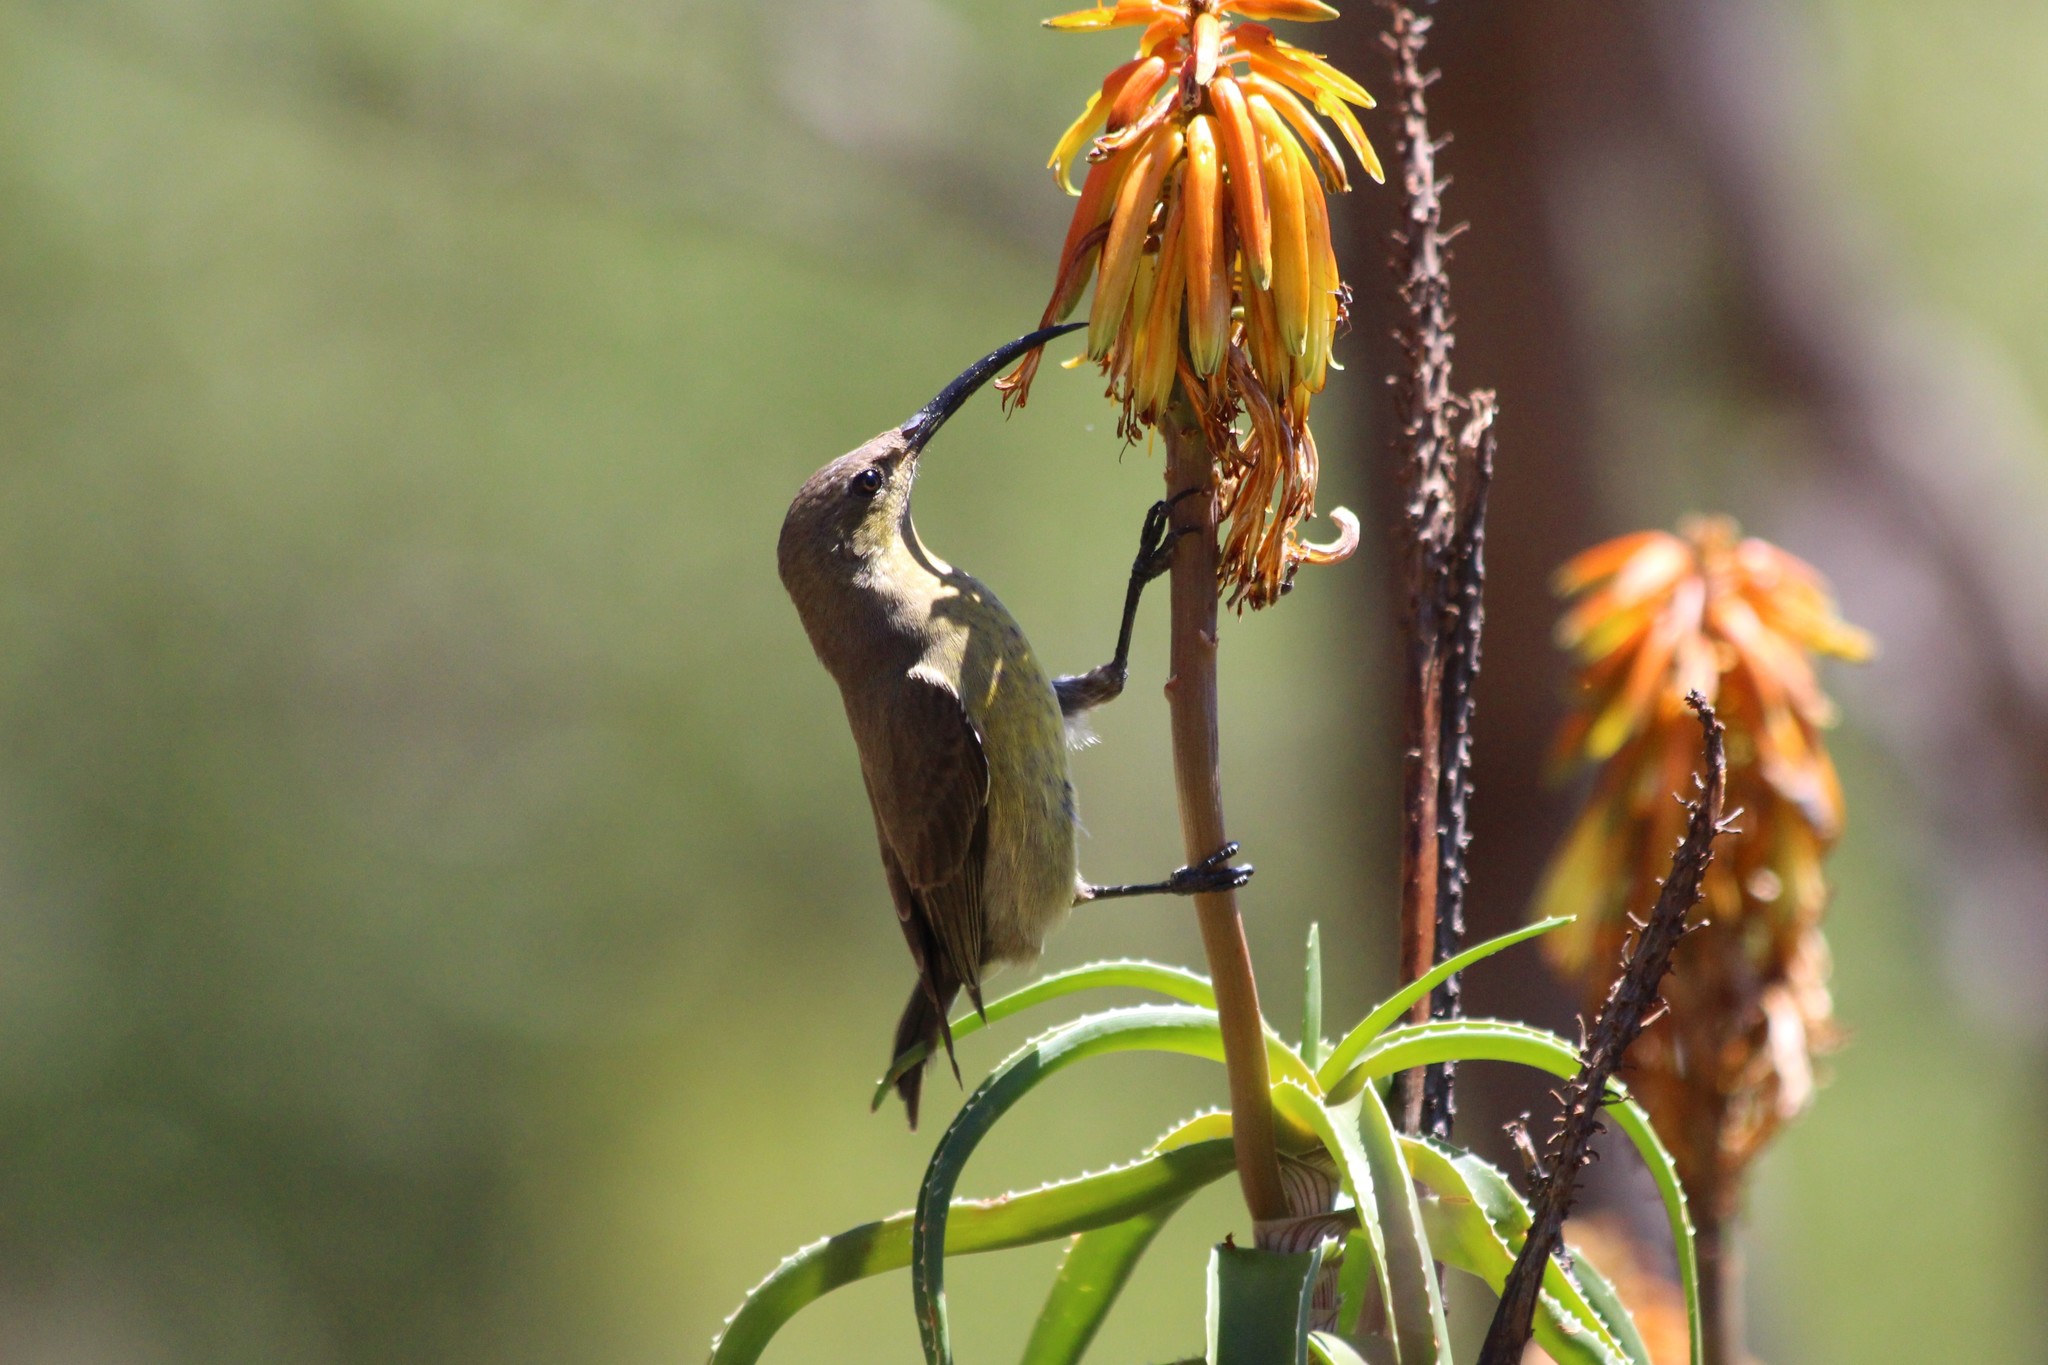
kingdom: Animalia
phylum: Chordata
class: Aves
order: Passeriformes
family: Nectariniidae
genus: Nectarinia
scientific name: Nectarinia famosa
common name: Malachite sunbird
